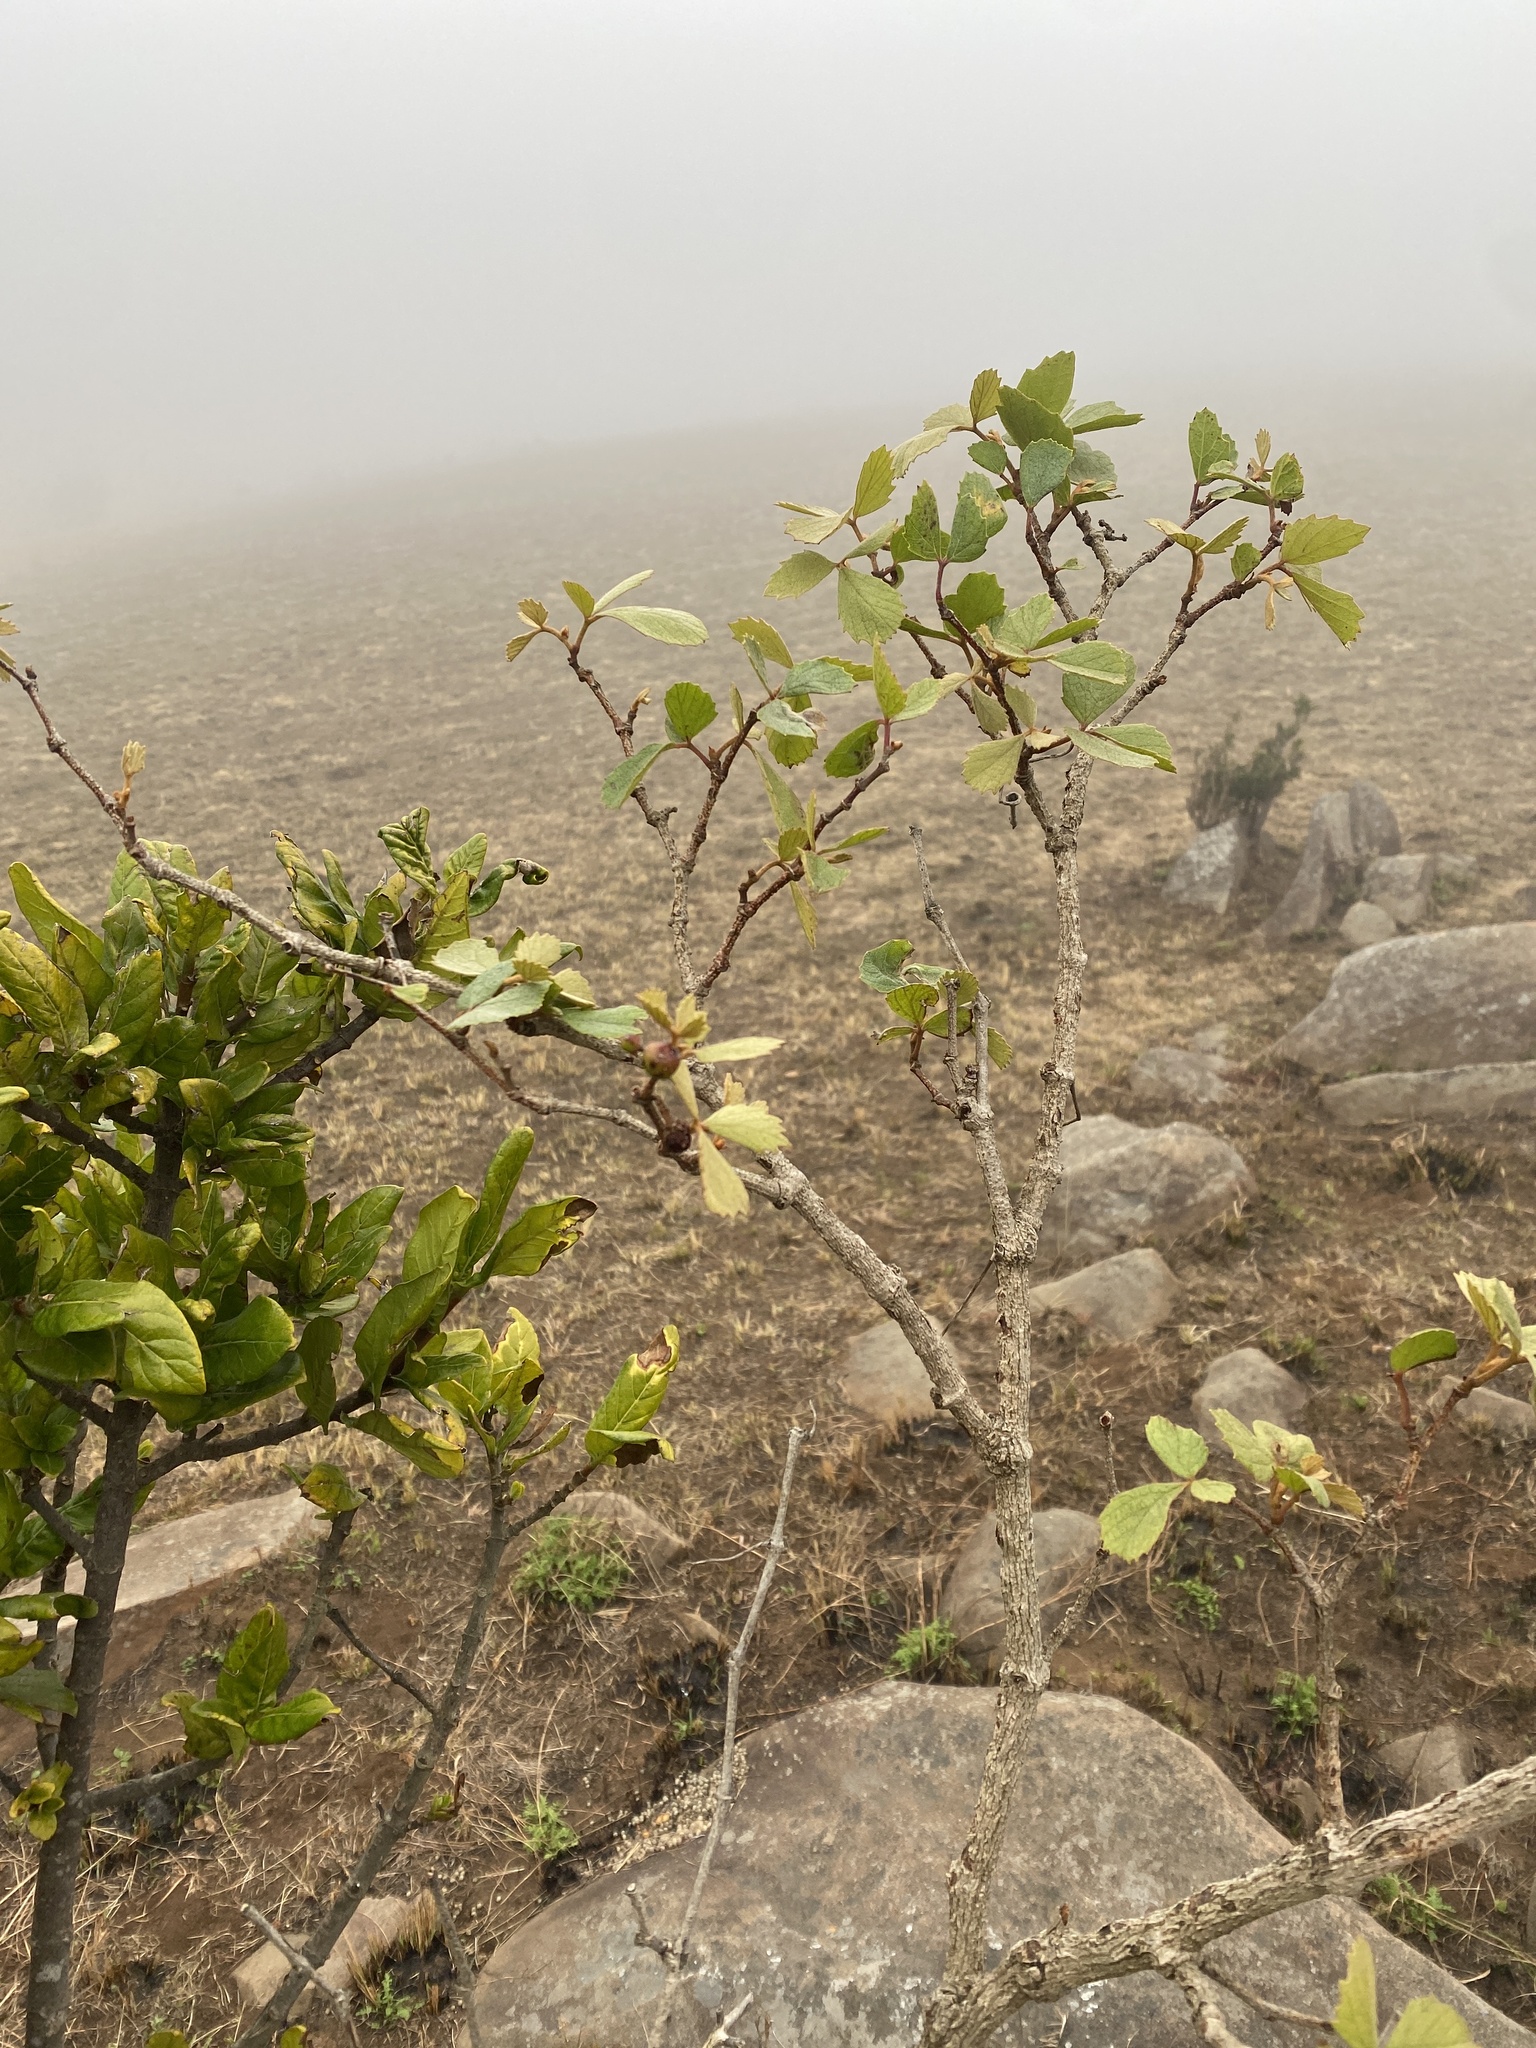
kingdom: Plantae
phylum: Tracheophyta
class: Magnoliopsida
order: Vitales
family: Vitaceae
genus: Rhoicissus
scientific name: Rhoicissus tridentata
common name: Common forest grape
